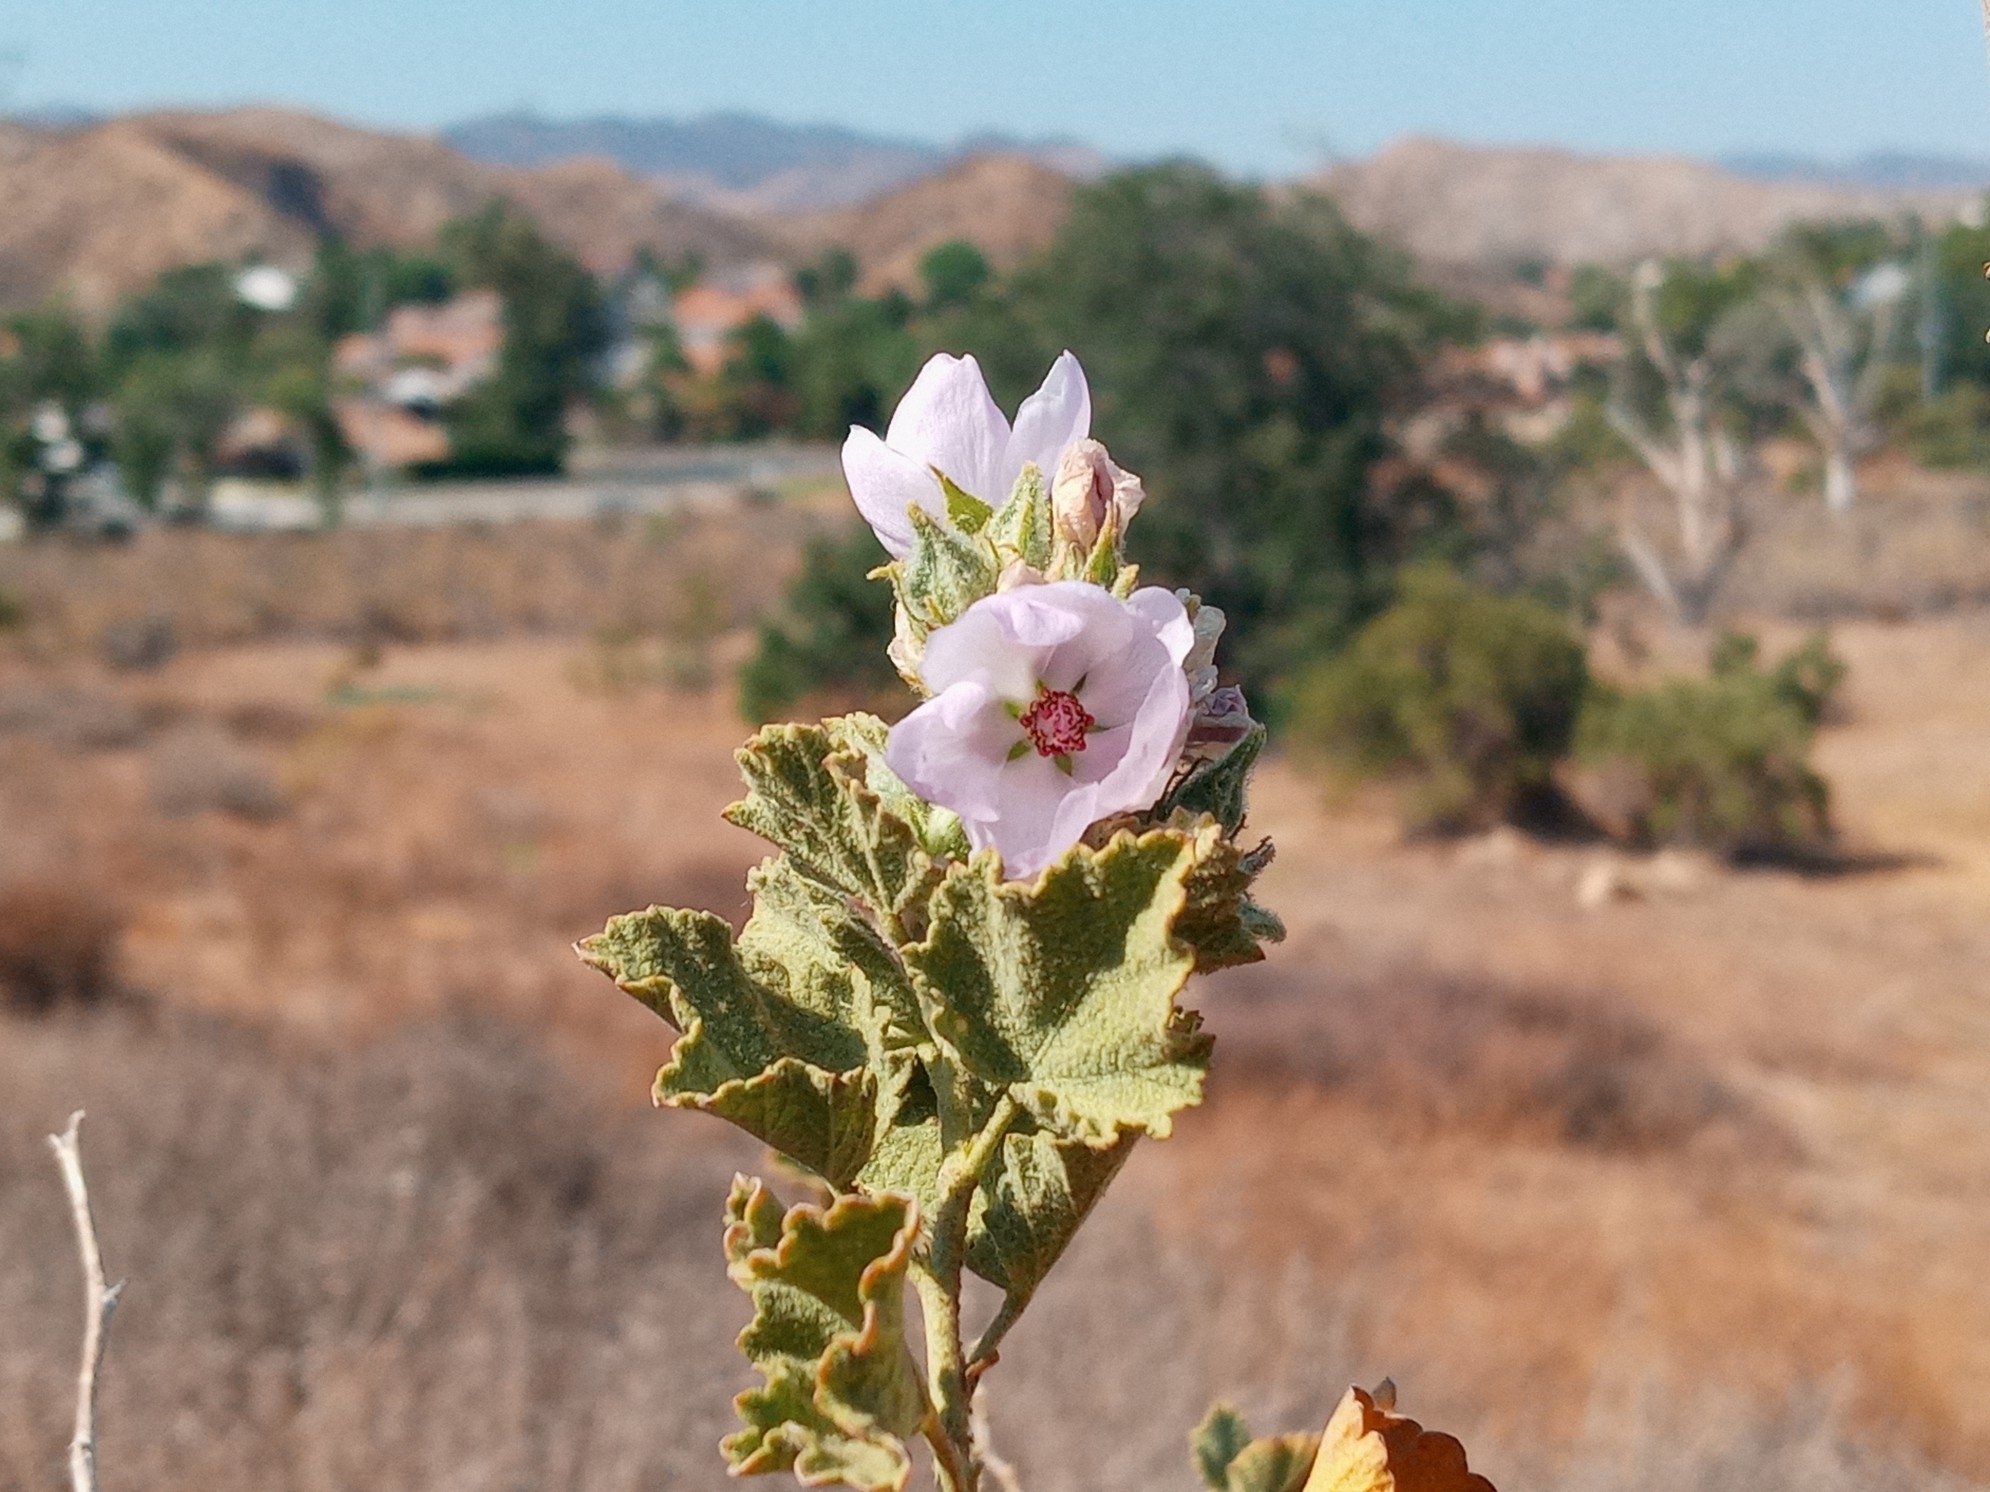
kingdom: Plantae
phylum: Tracheophyta
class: Magnoliopsida
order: Malvales
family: Malvaceae
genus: Malacothamnus
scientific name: Malacothamnus marrubioides
